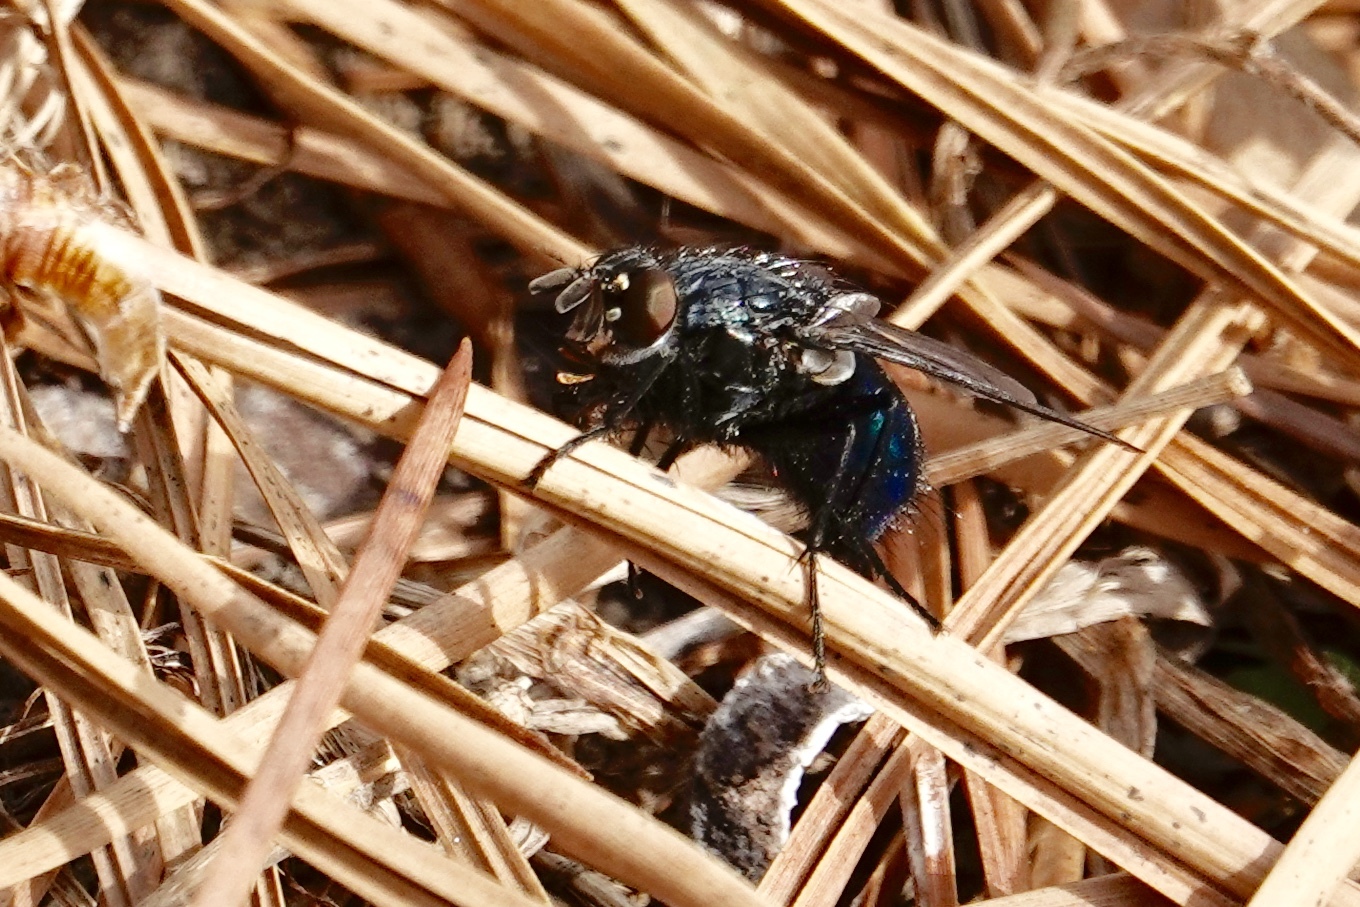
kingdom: Animalia
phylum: Arthropoda
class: Insecta
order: Diptera
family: Calliphoridae
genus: Cynomya
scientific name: Cynomya cadaverina
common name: Shiny blue bottle fly
